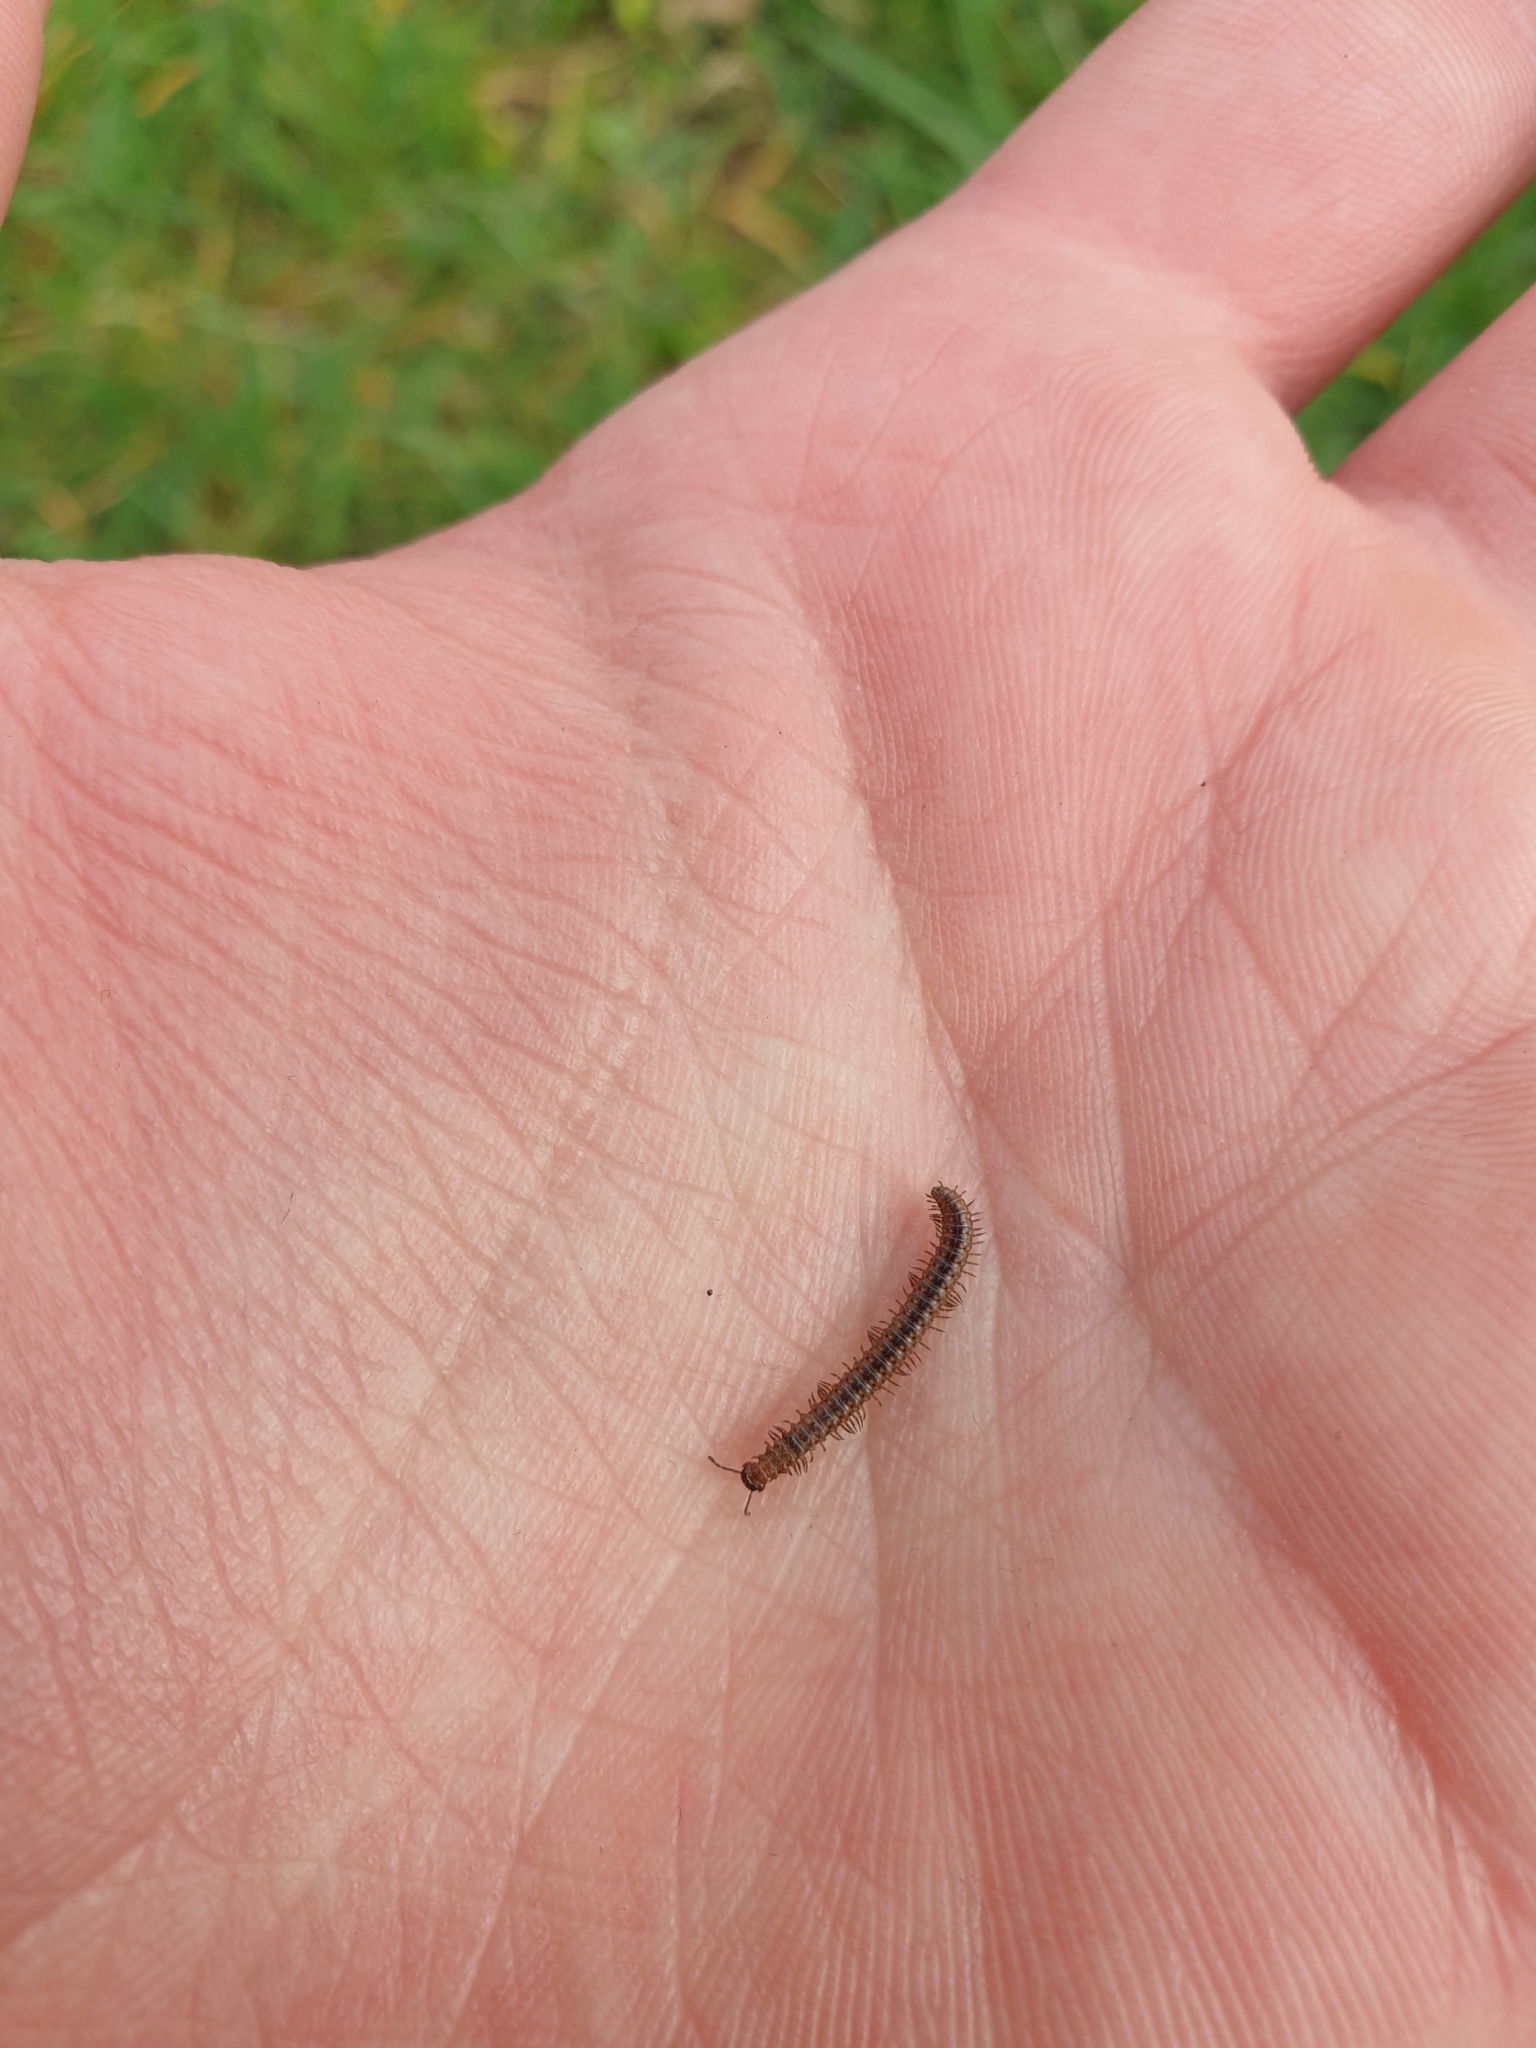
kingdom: Animalia
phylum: Arthropoda
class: Diplopoda
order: Chordeumatida
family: Craspedosomatidae
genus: Craspedosoma
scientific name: Craspedosoma rawlinsii
